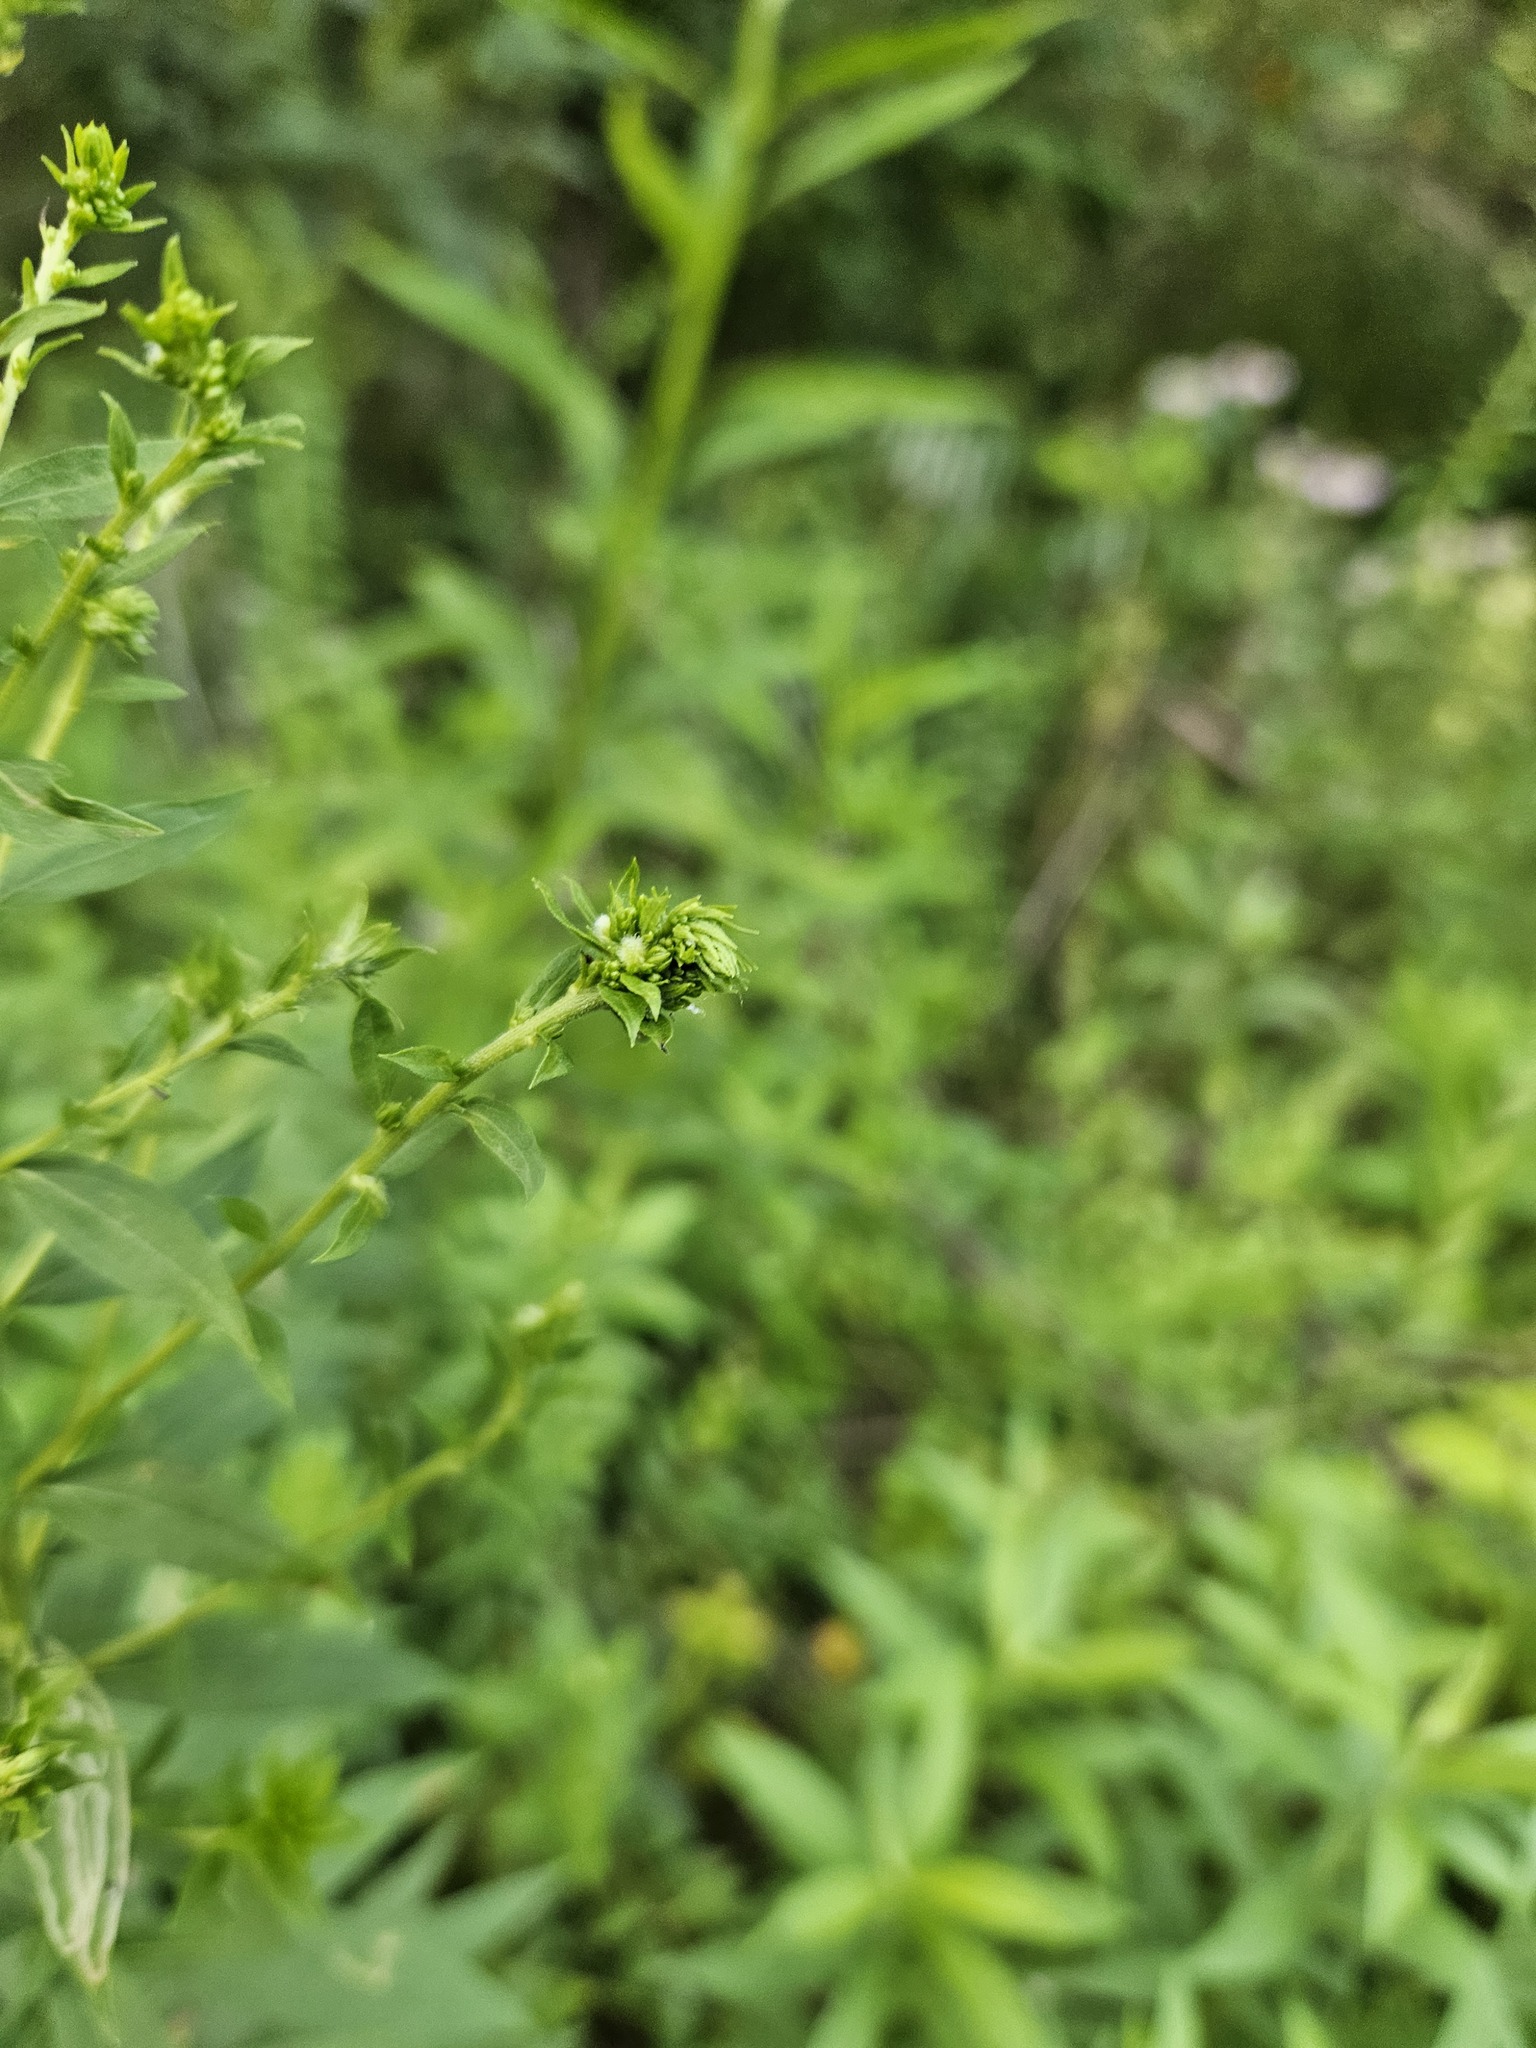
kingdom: Animalia
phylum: Arthropoda
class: Insecta
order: Diptera
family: Cecidomyiidae
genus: Rhopalomyia
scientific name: Rhopalomyia anthophila
